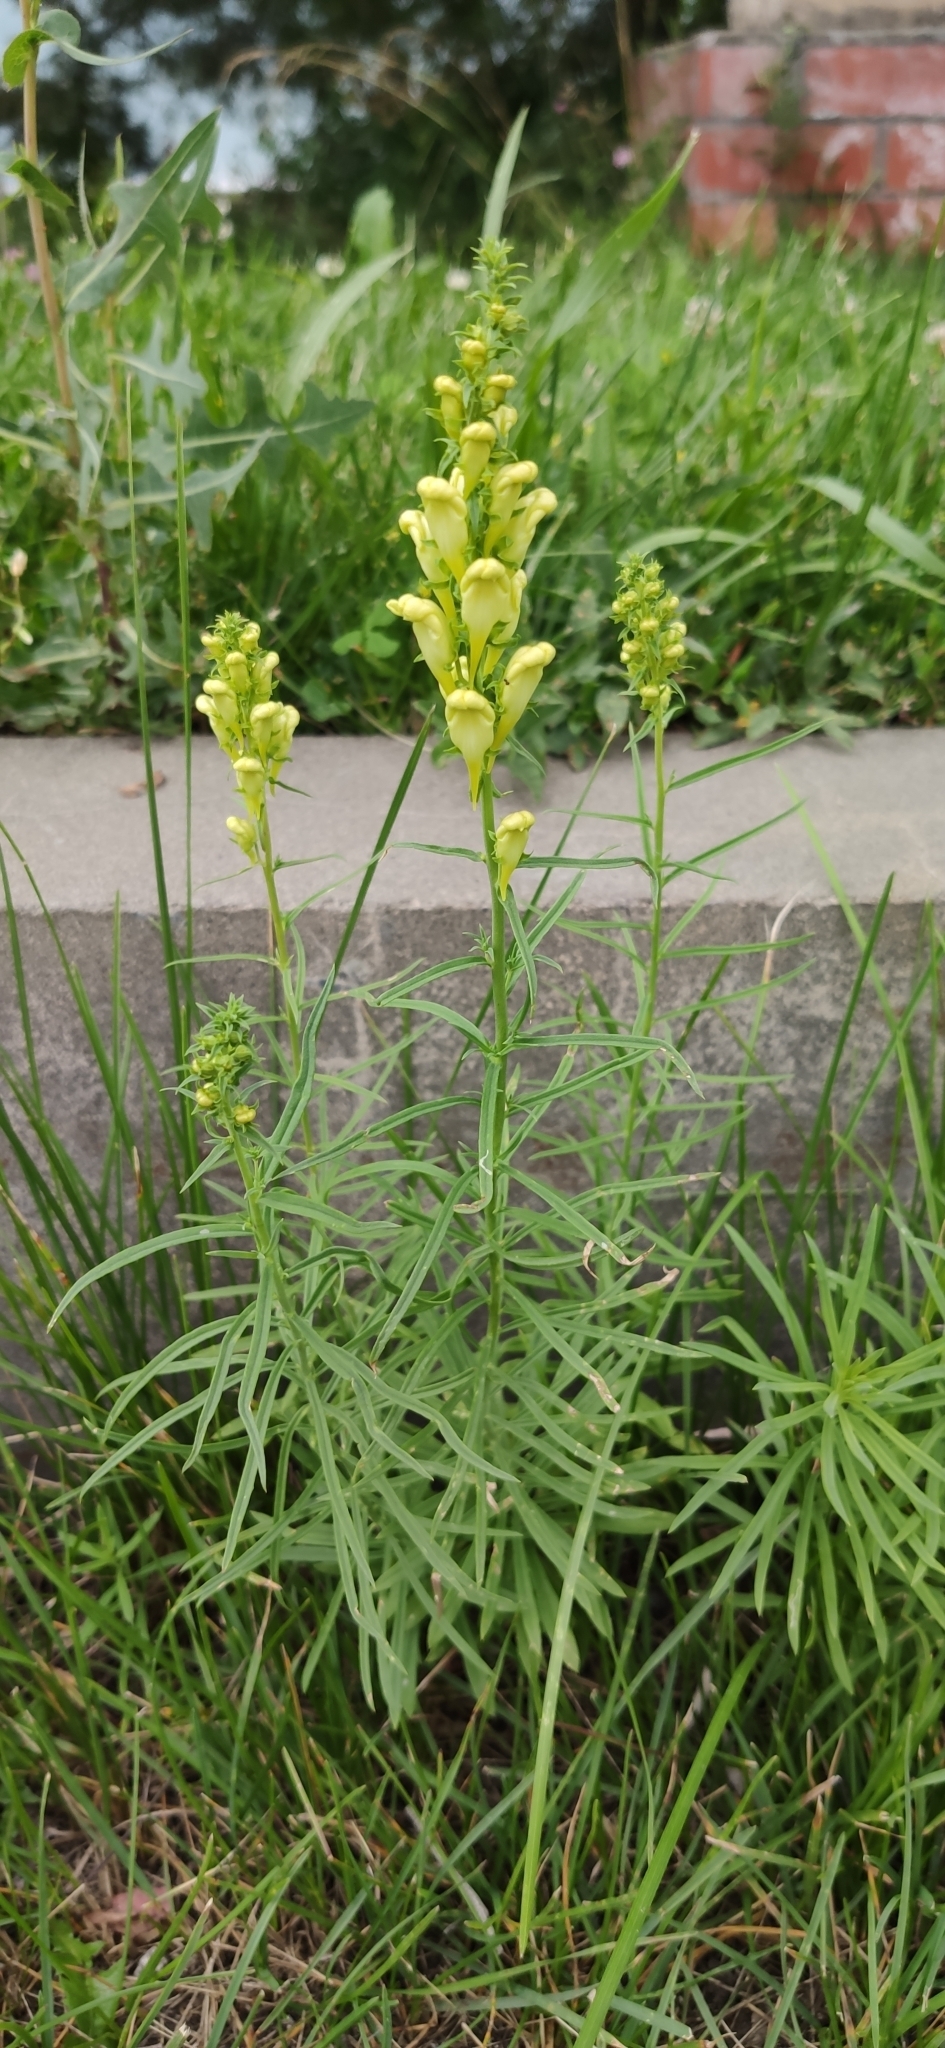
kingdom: Plantae
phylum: Tracheophyta
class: Magnoliopsida
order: Lamiales
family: Plantaginaceae
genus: Linaria
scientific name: Linaria vulgaris
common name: Butter and eggs
